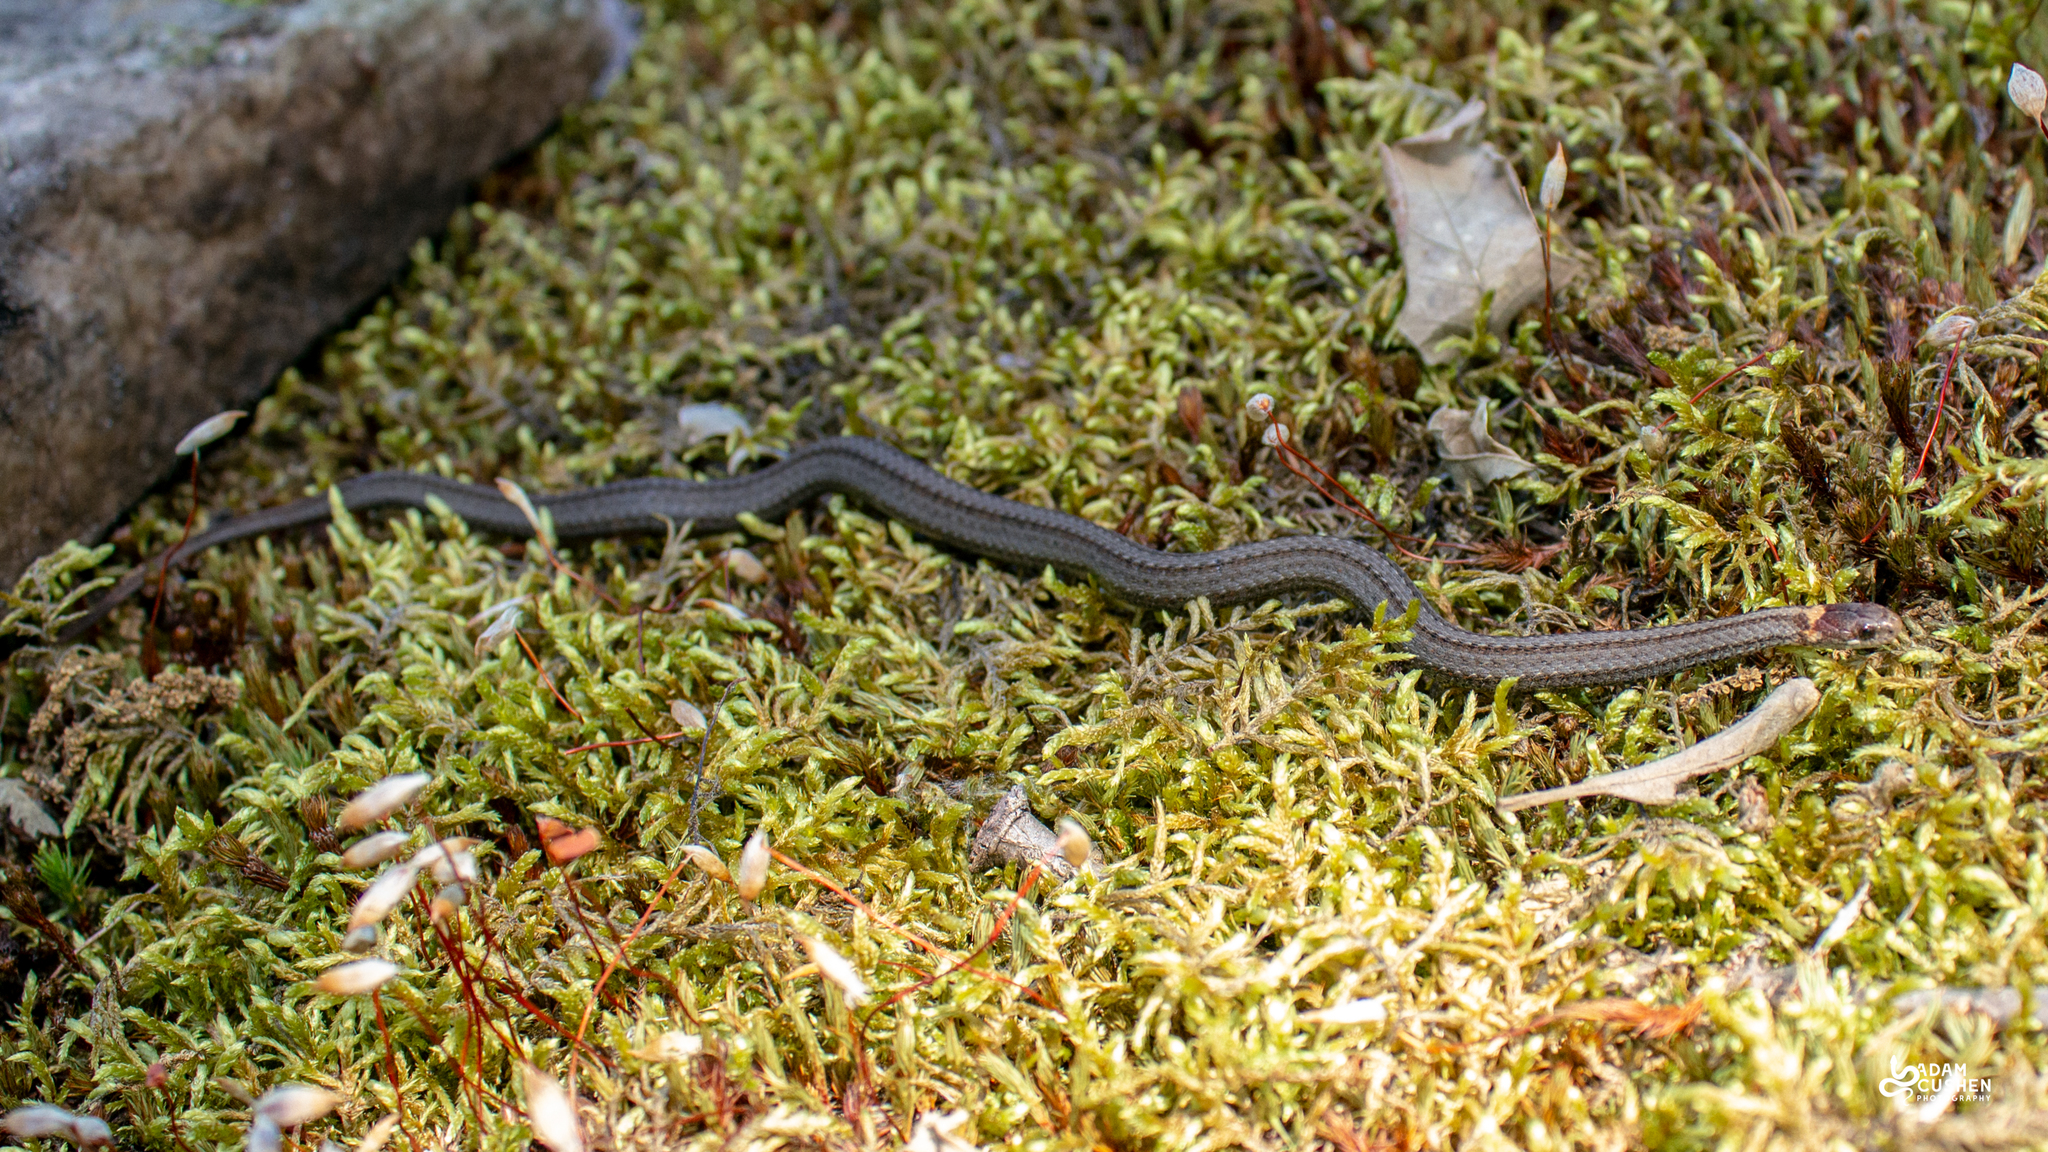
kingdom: Animalia
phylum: Chordata
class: Squamata
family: Colubridae
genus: Storeria
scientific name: Storeria occipitomaculata
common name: Redbelly snake
